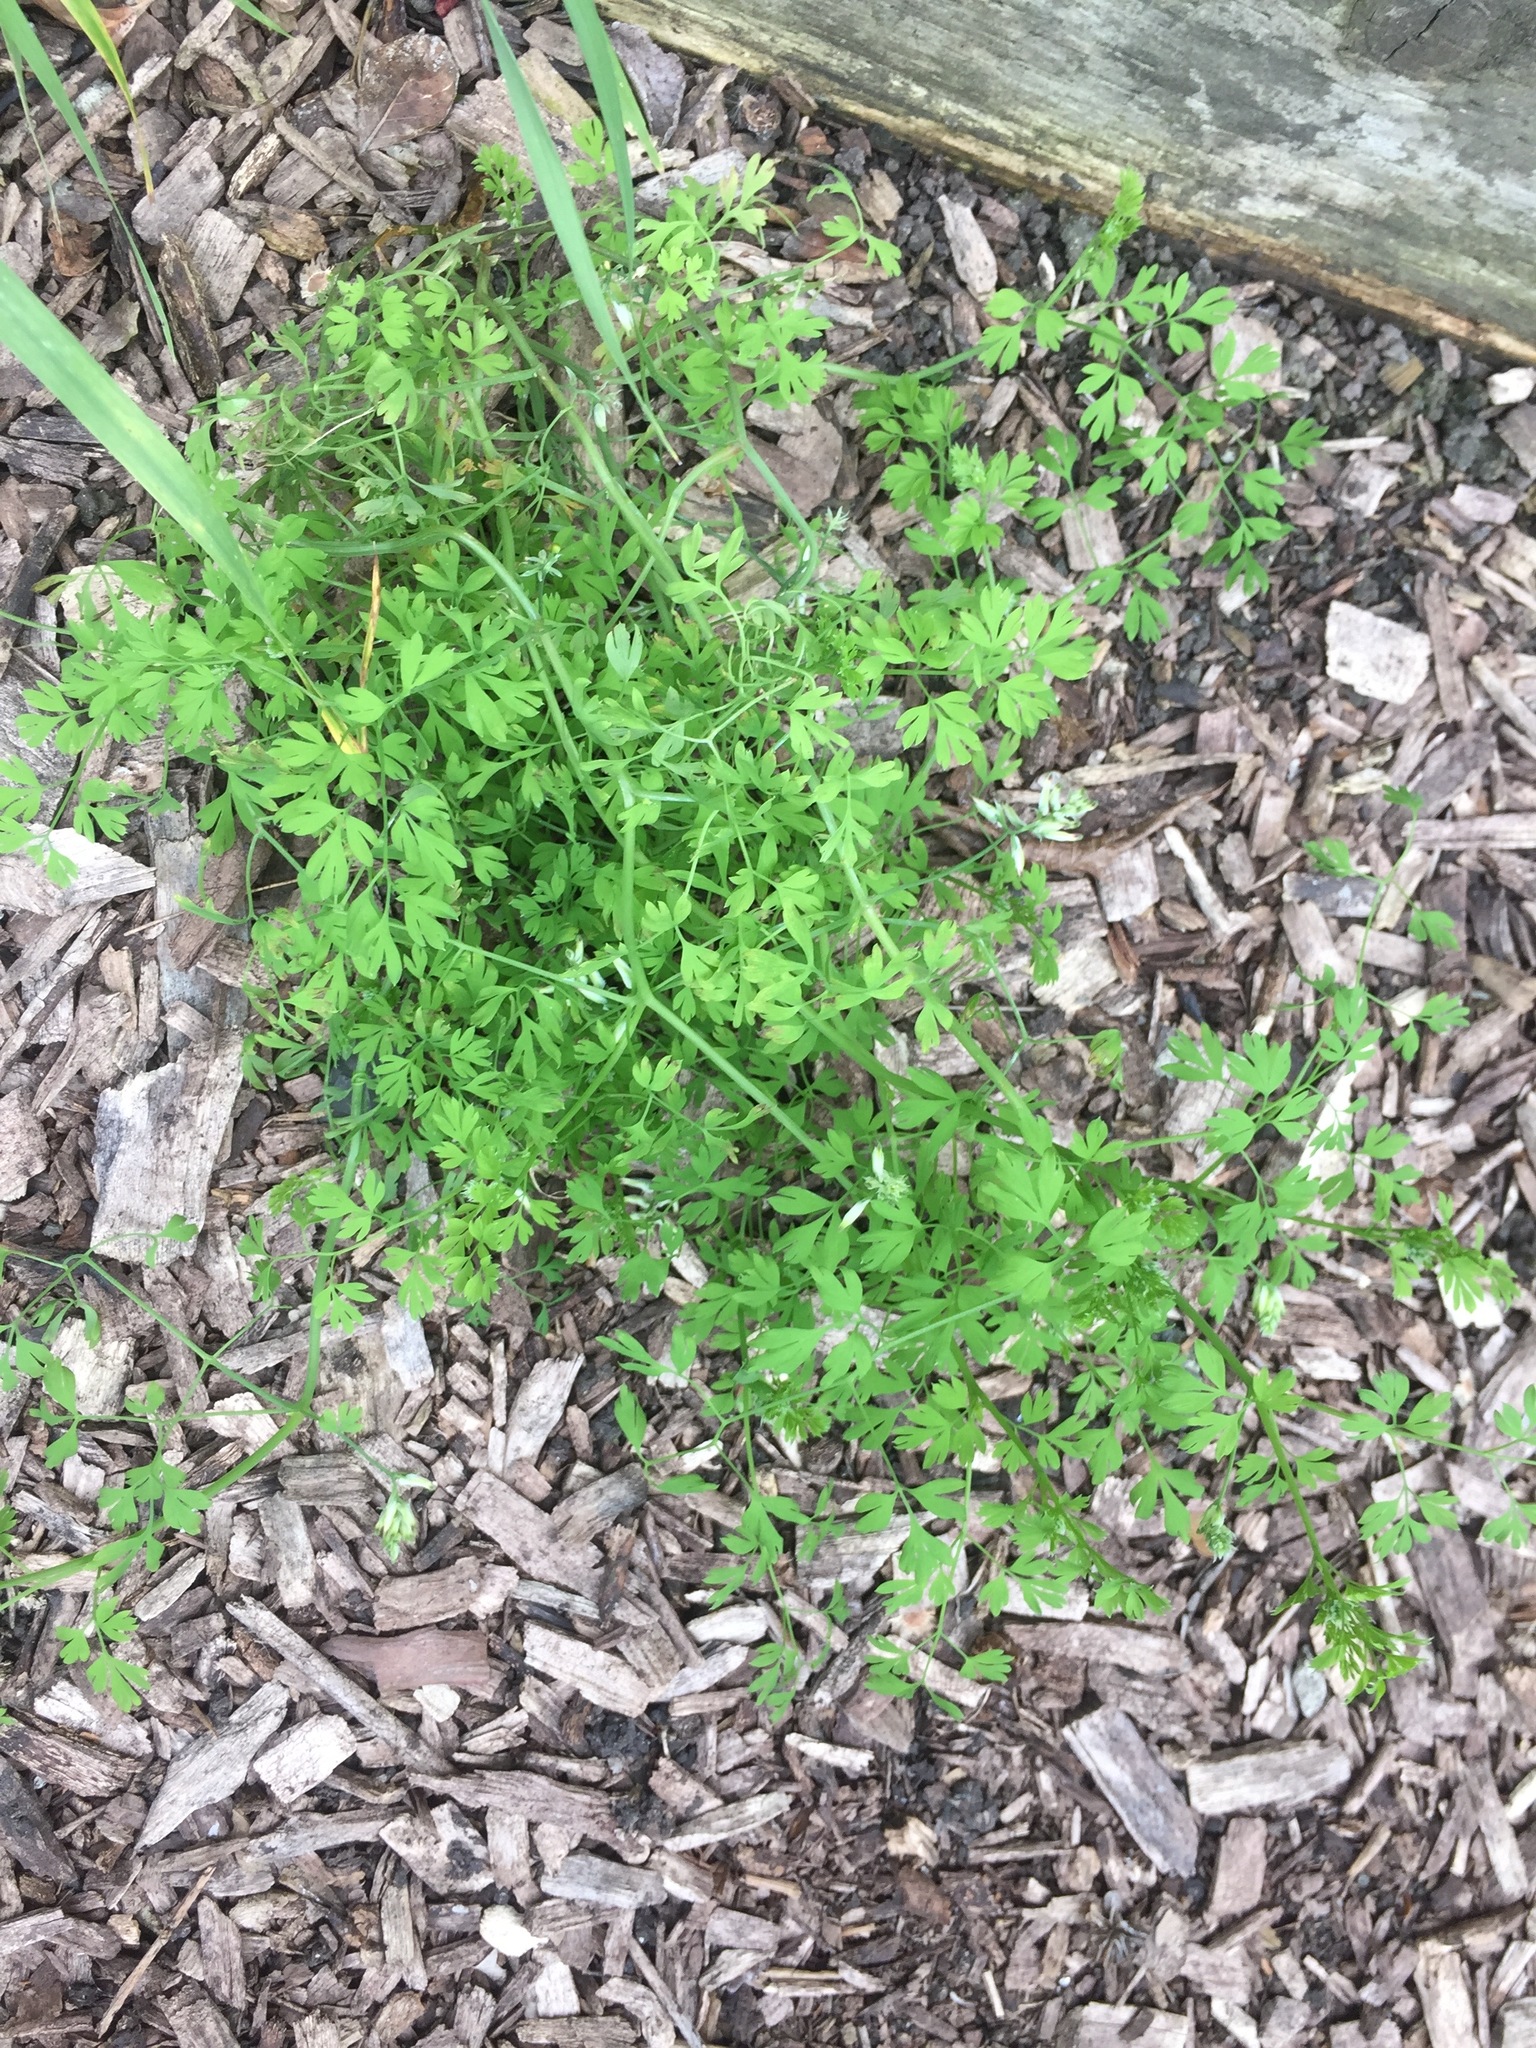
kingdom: Plantae
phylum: Tracheophyta
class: Magnoliopsida
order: Ranunculales
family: Papaveraceae
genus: Fumaria
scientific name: Fumaria
